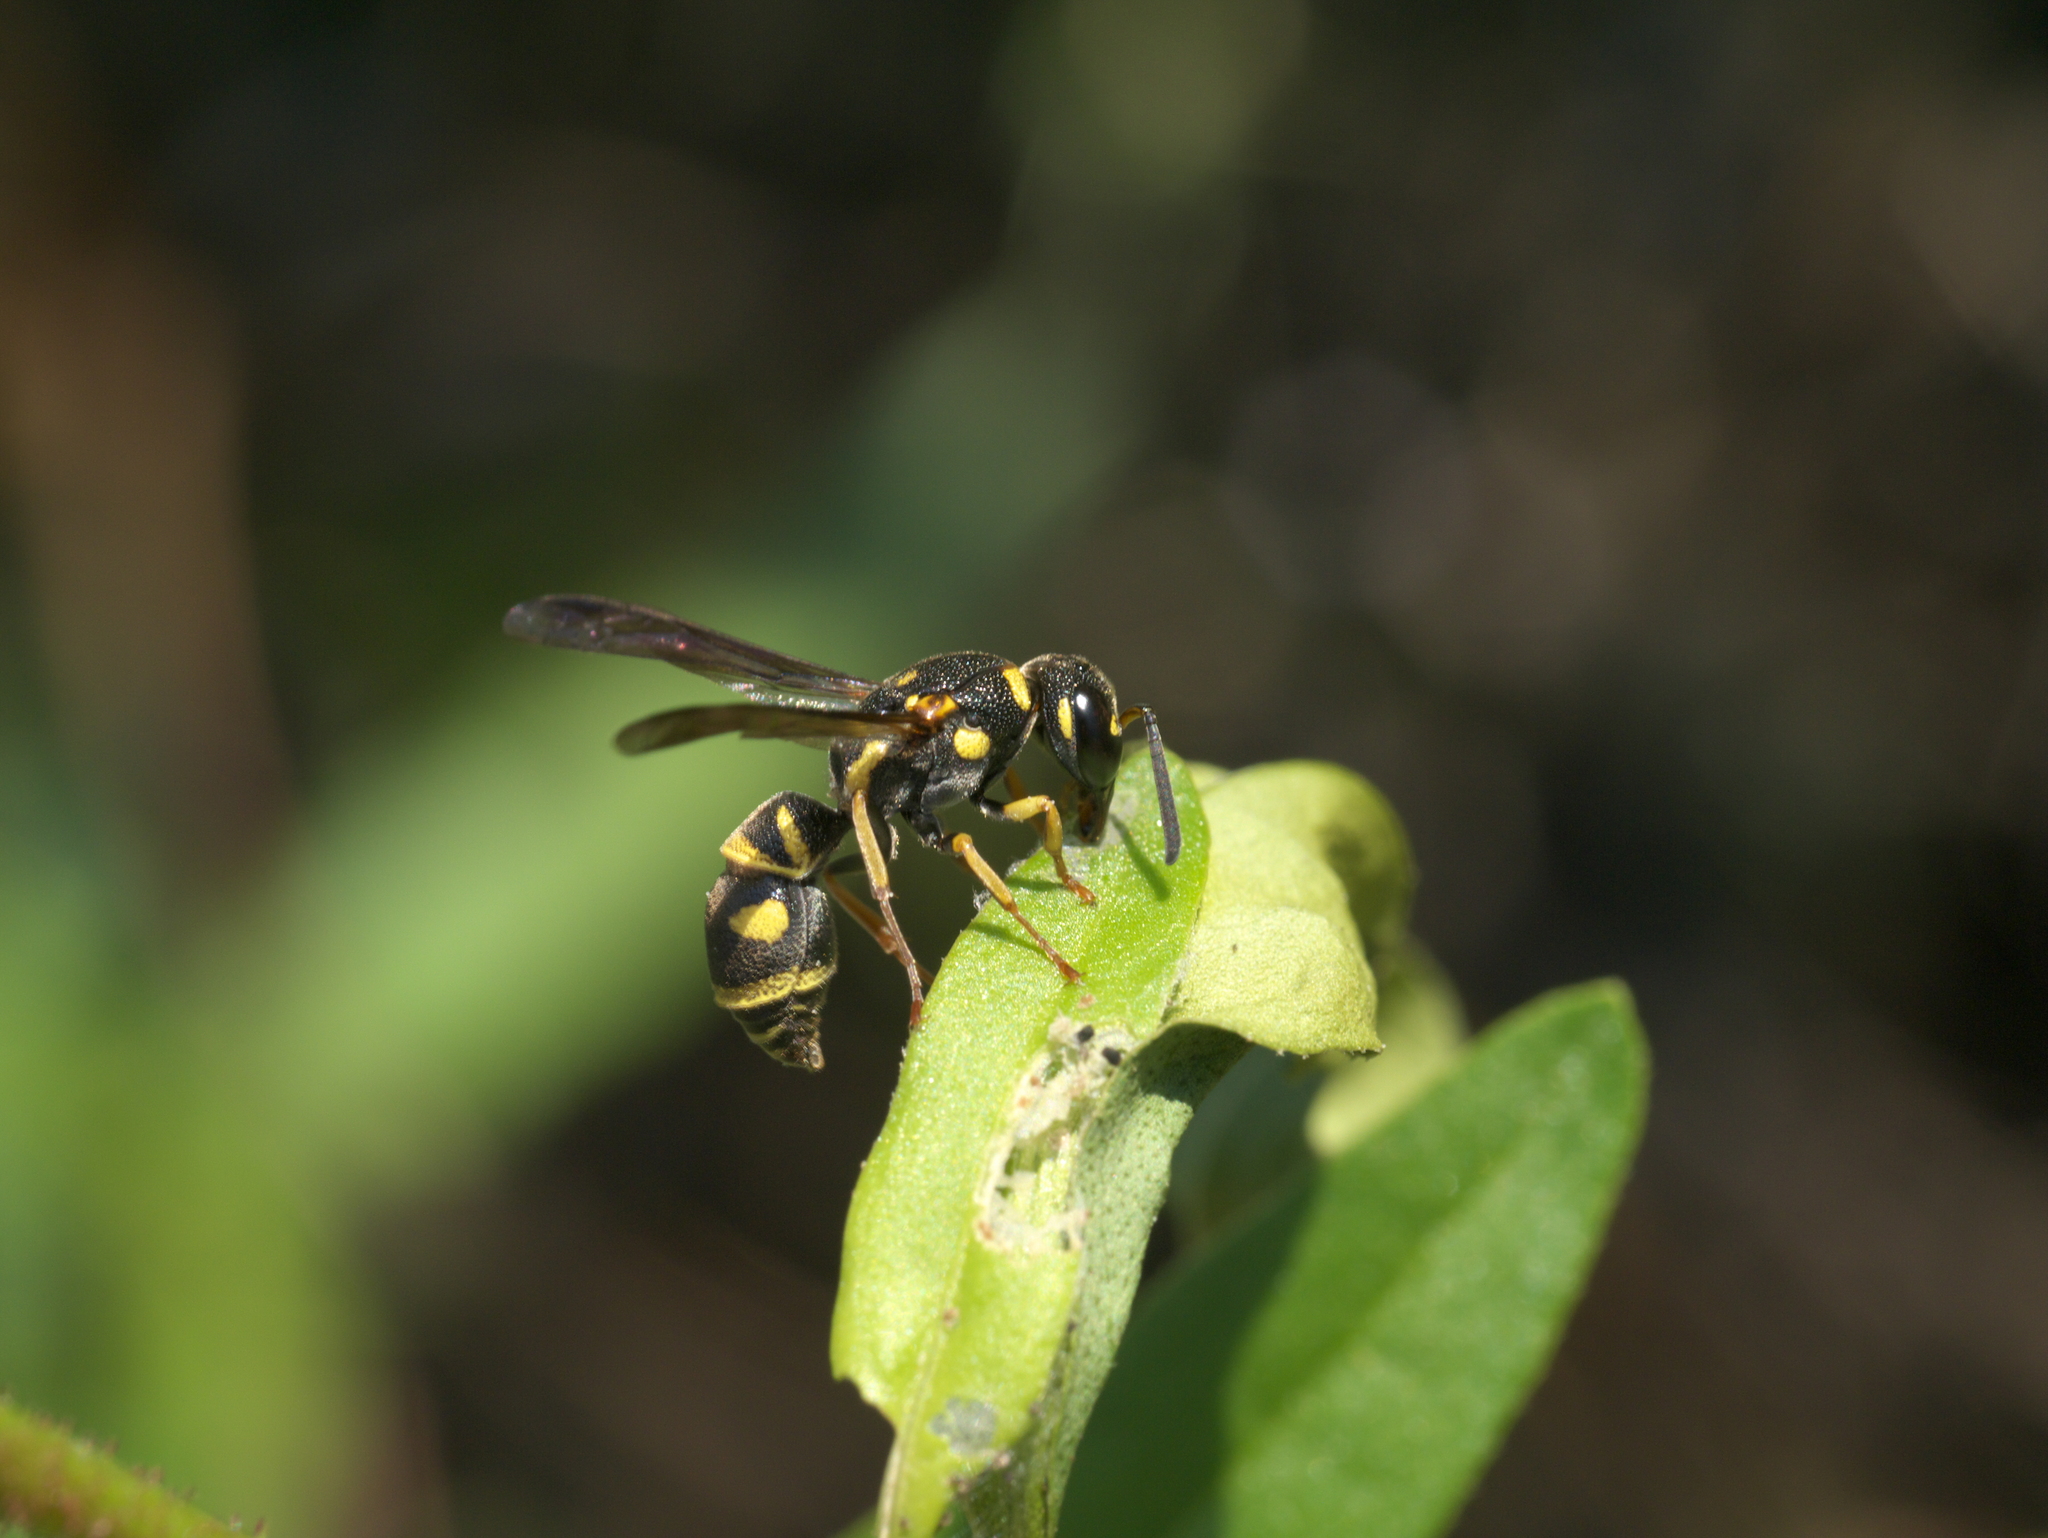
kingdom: Animalia
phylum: Arthropoda
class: Insecta
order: Hymenoptera
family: Eumenidae
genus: Parancistrocerus
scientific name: Parancistrocerus
